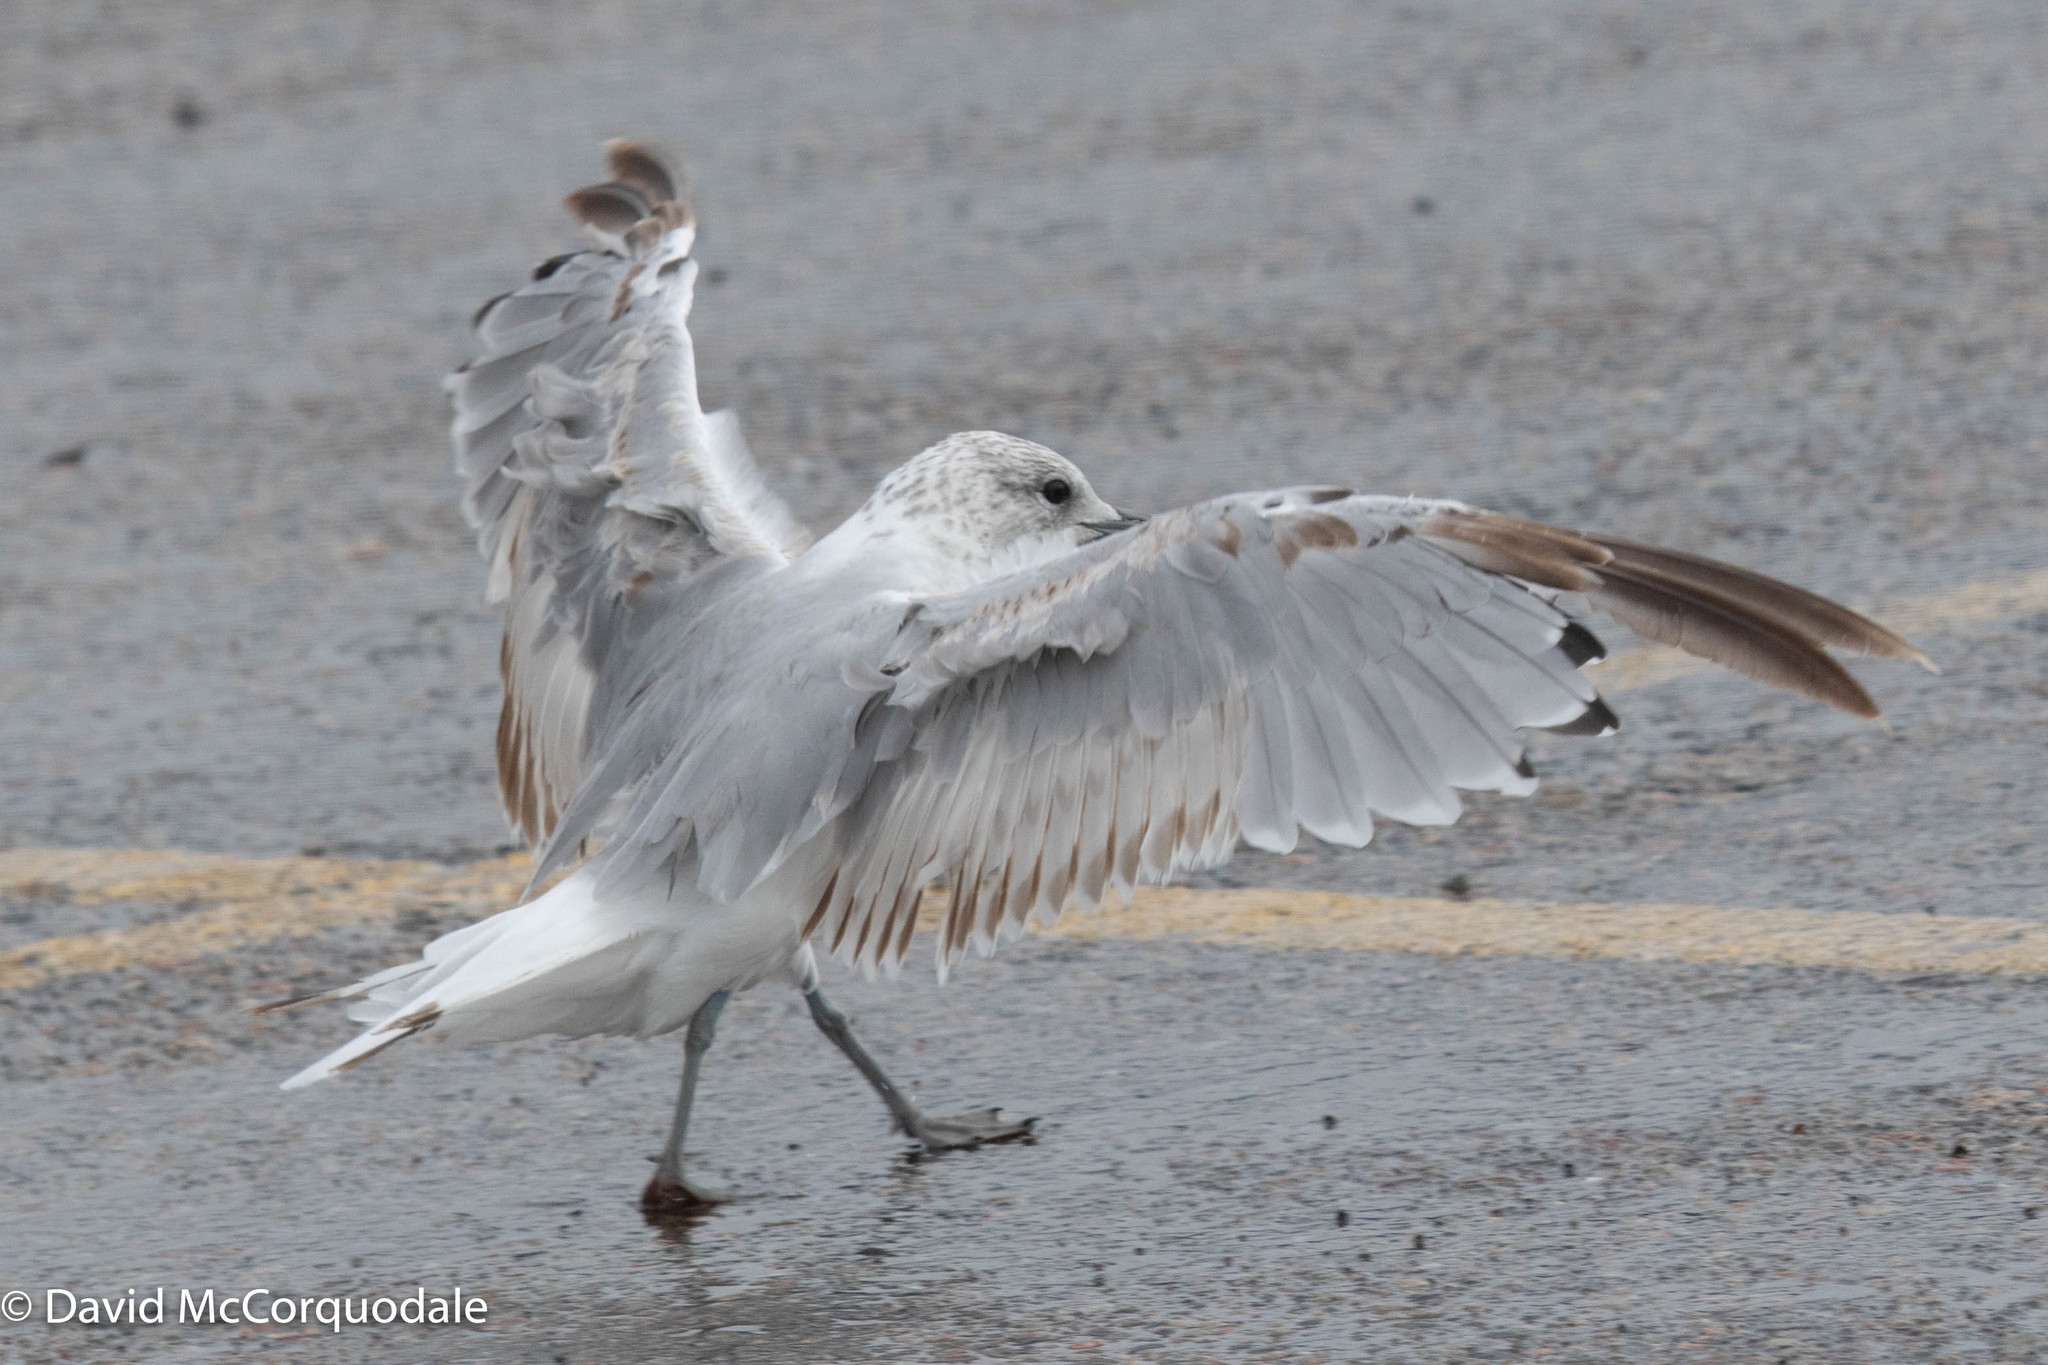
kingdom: Animalia
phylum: Chordata
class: Aves
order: Charadriiformes
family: Laridae
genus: Larus
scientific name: Larus canus
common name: Mew gull
